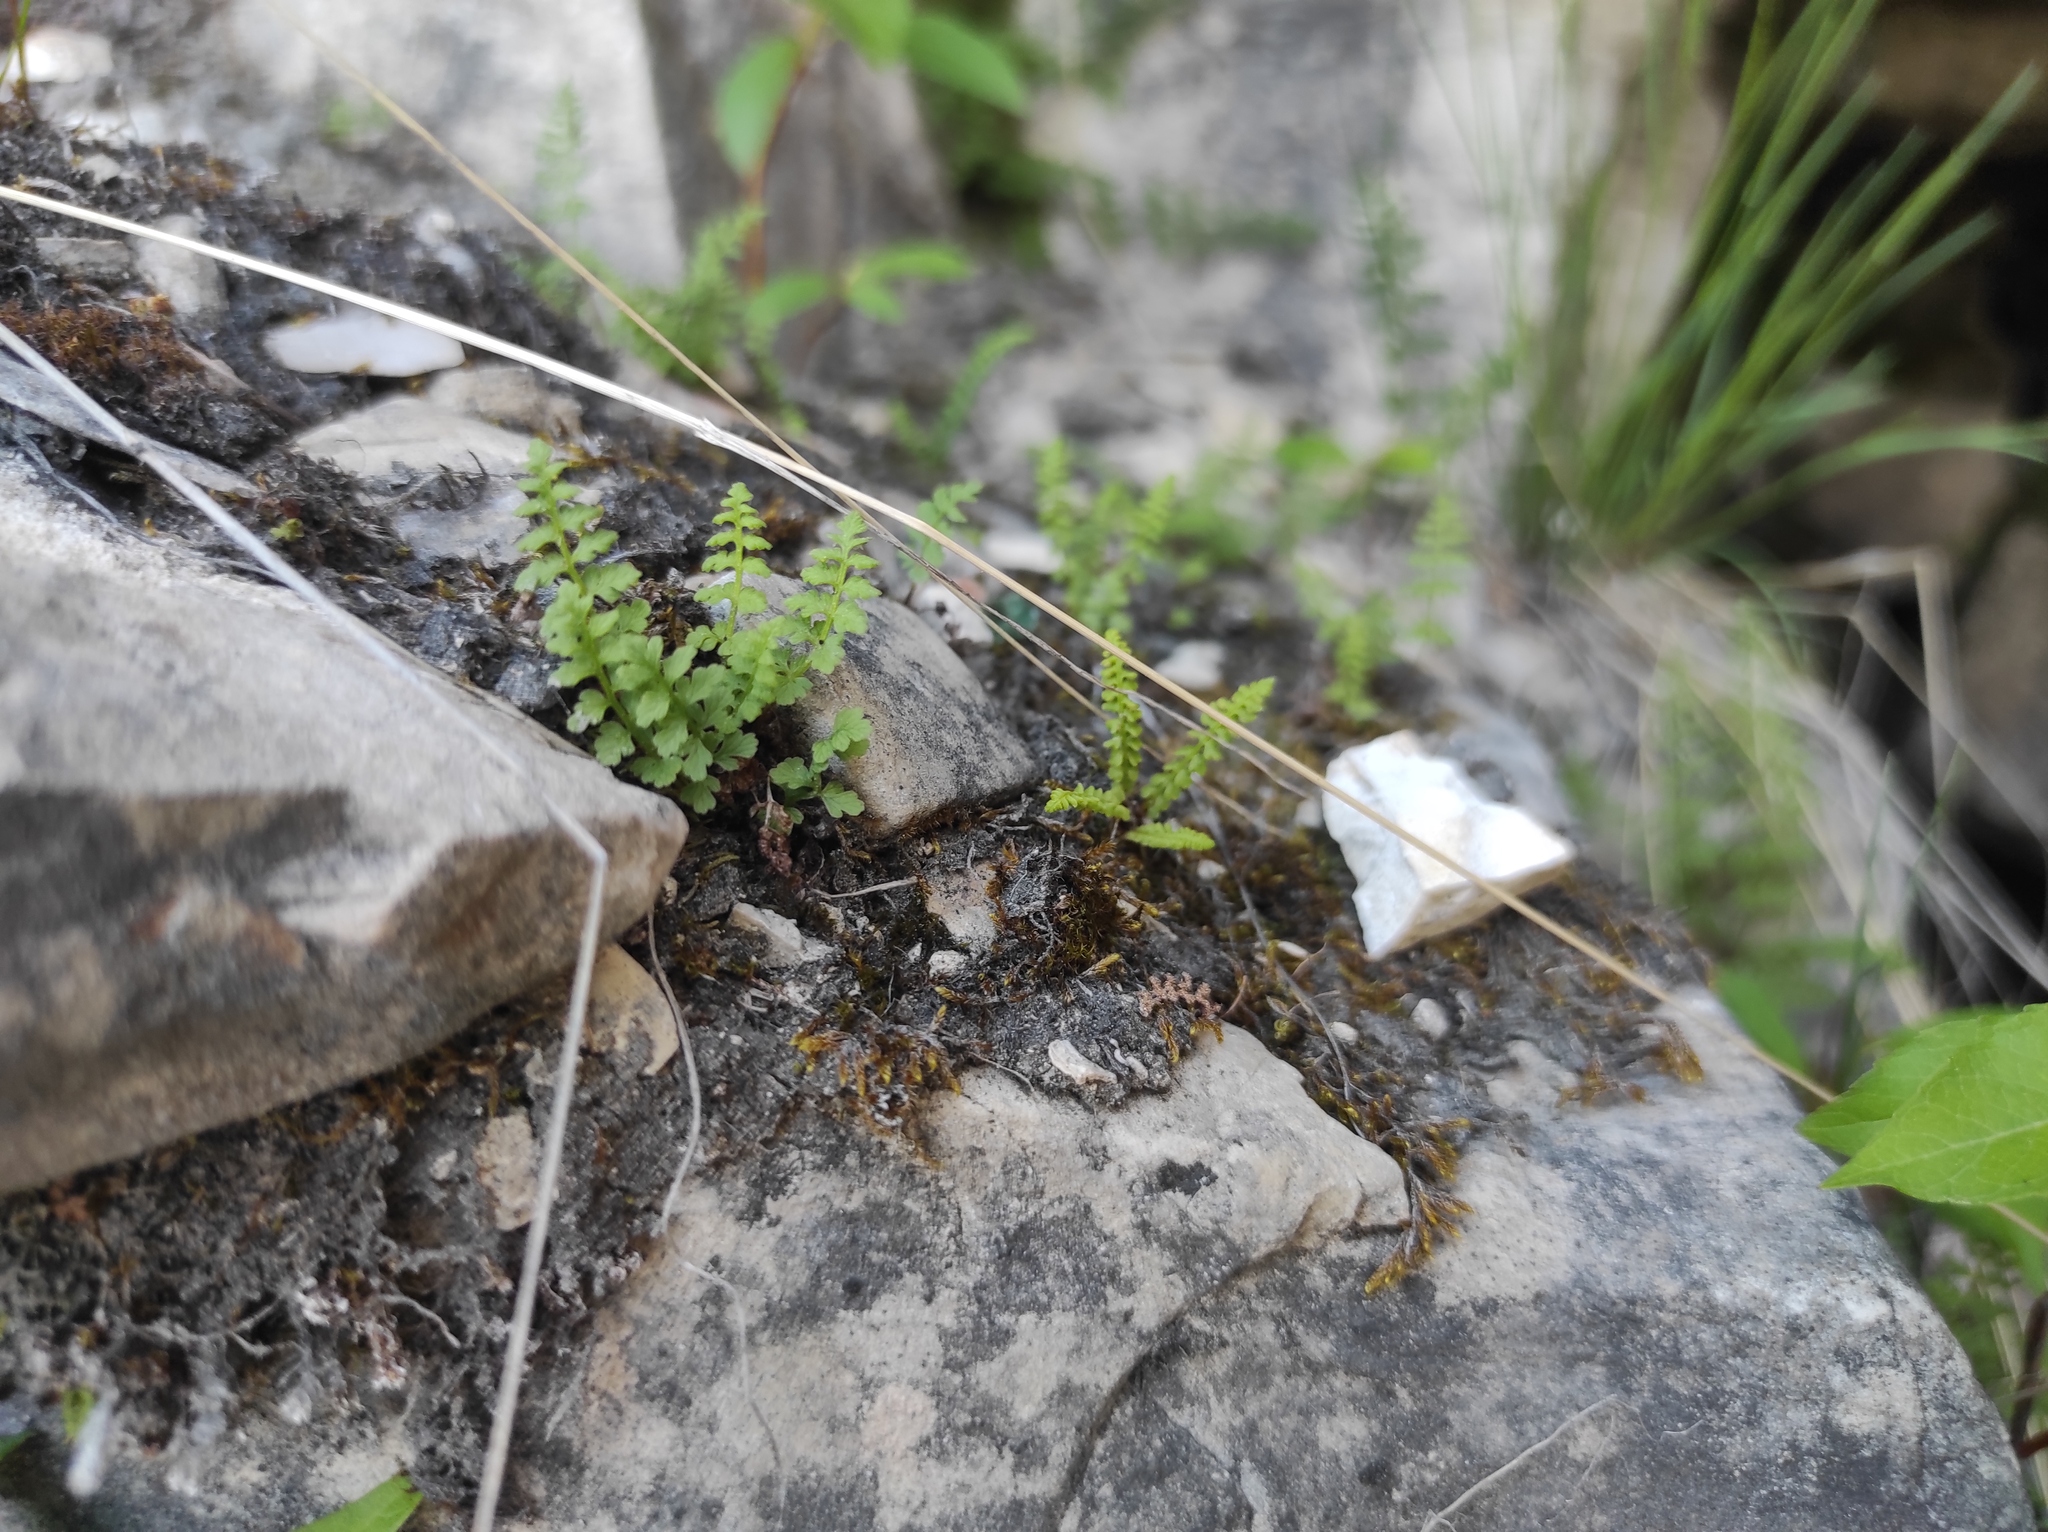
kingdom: Plantae
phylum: Tracheophyta
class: Polypodiopsida
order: Polypodiales
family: Woodsiaceae
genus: Woodsia
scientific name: Woodsia glabella
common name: Smooth woodsia
